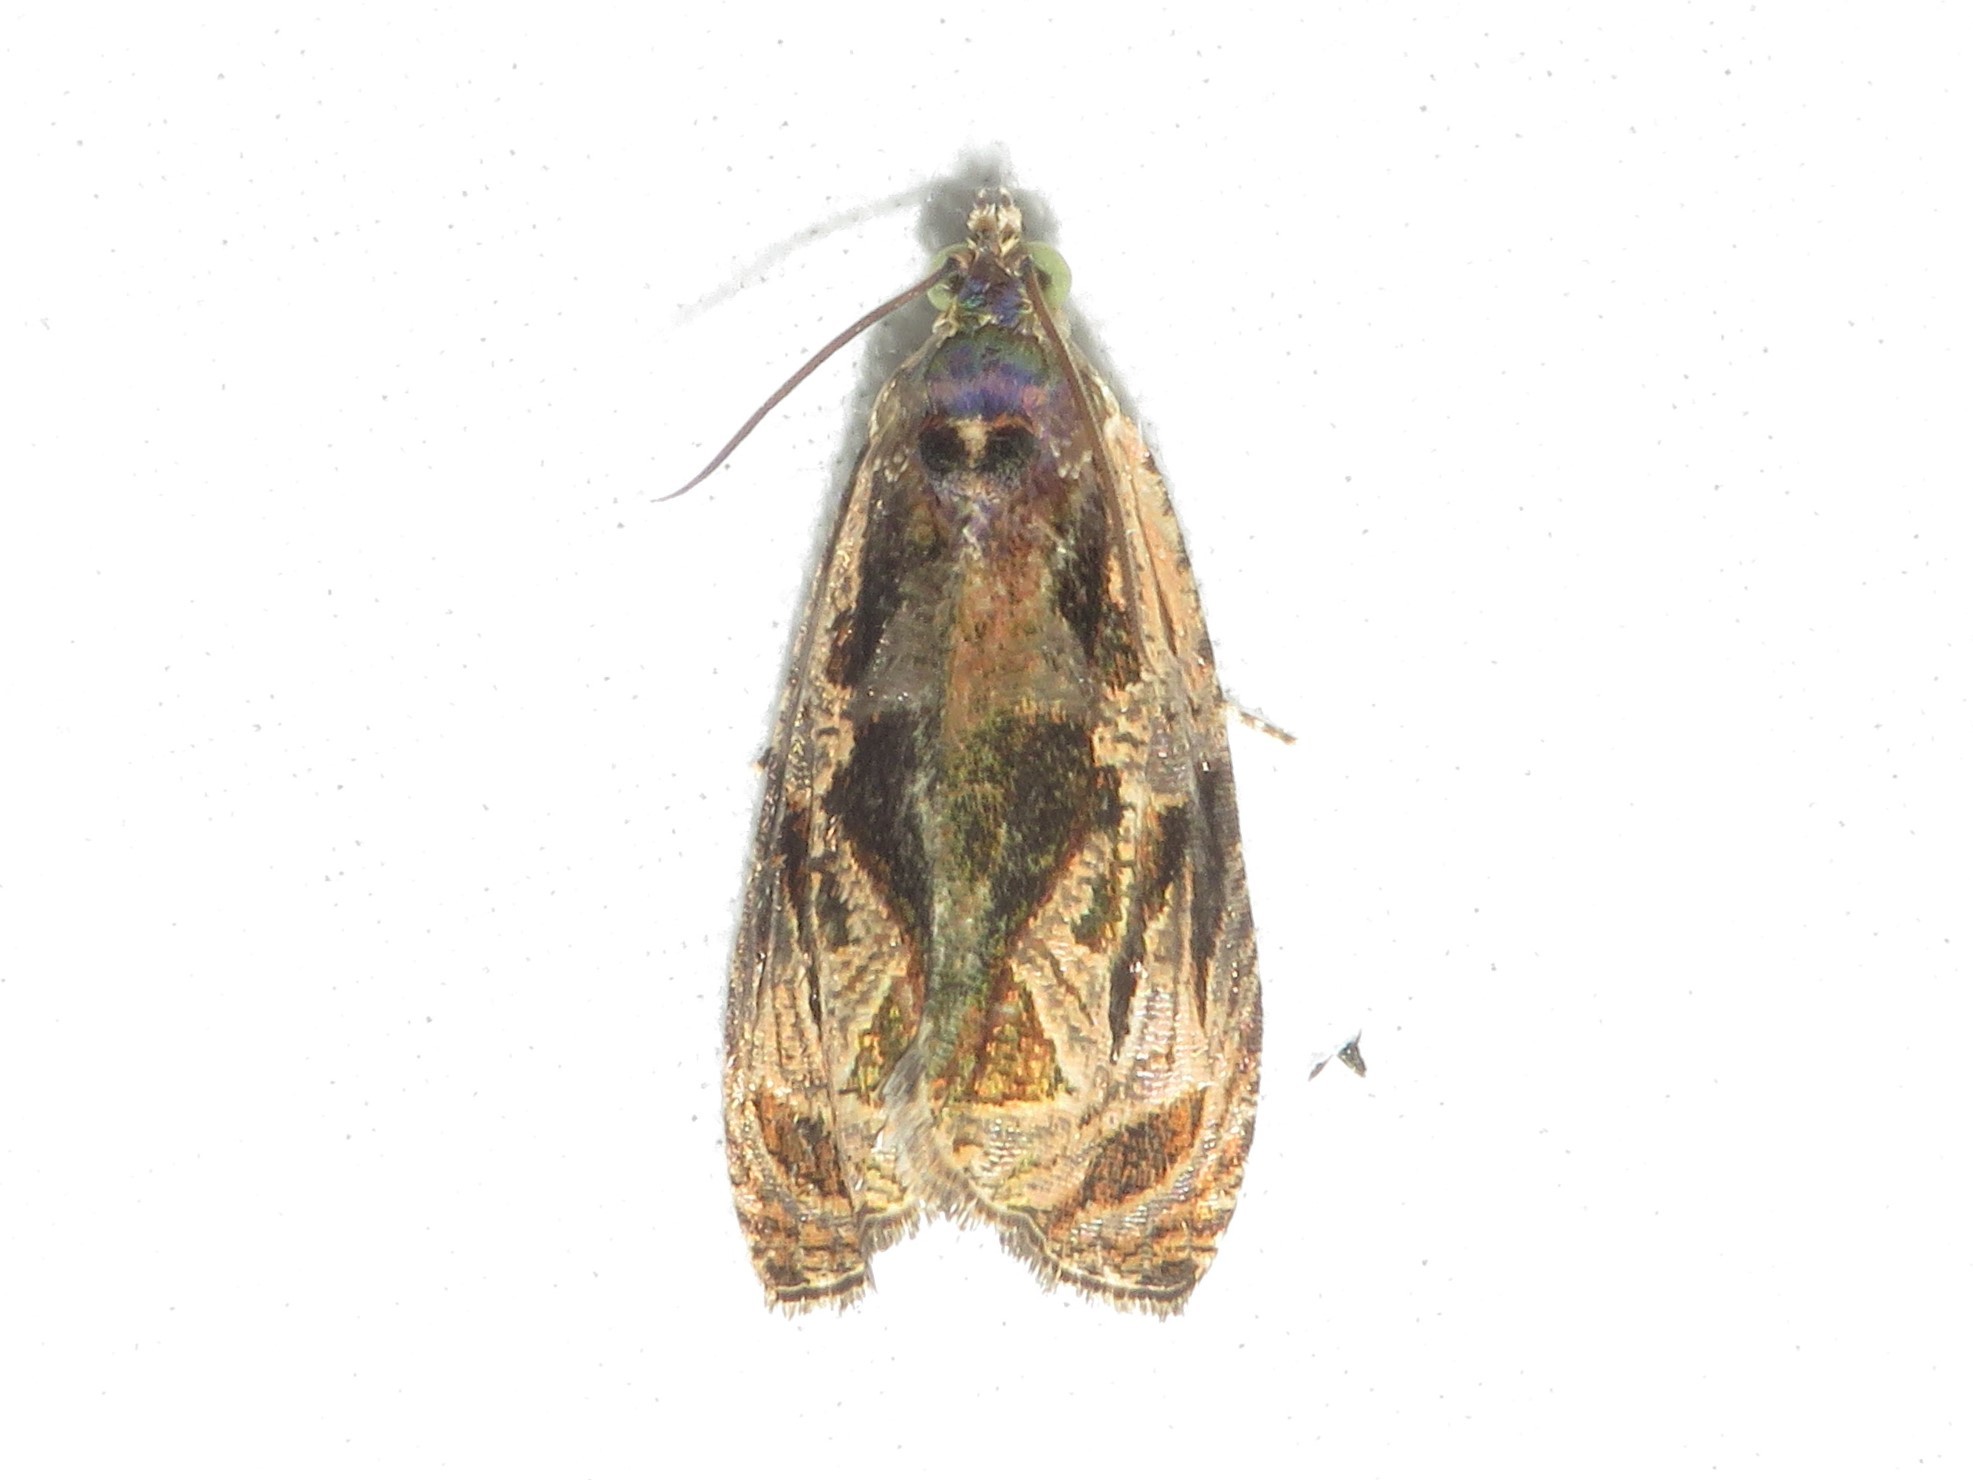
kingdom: Animalia
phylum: Arthropoda
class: Insecta
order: Lepidoptera
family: Tortricidae
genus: Olethreutes
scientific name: Olethreutes nigranum
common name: Variable nigranum moth
